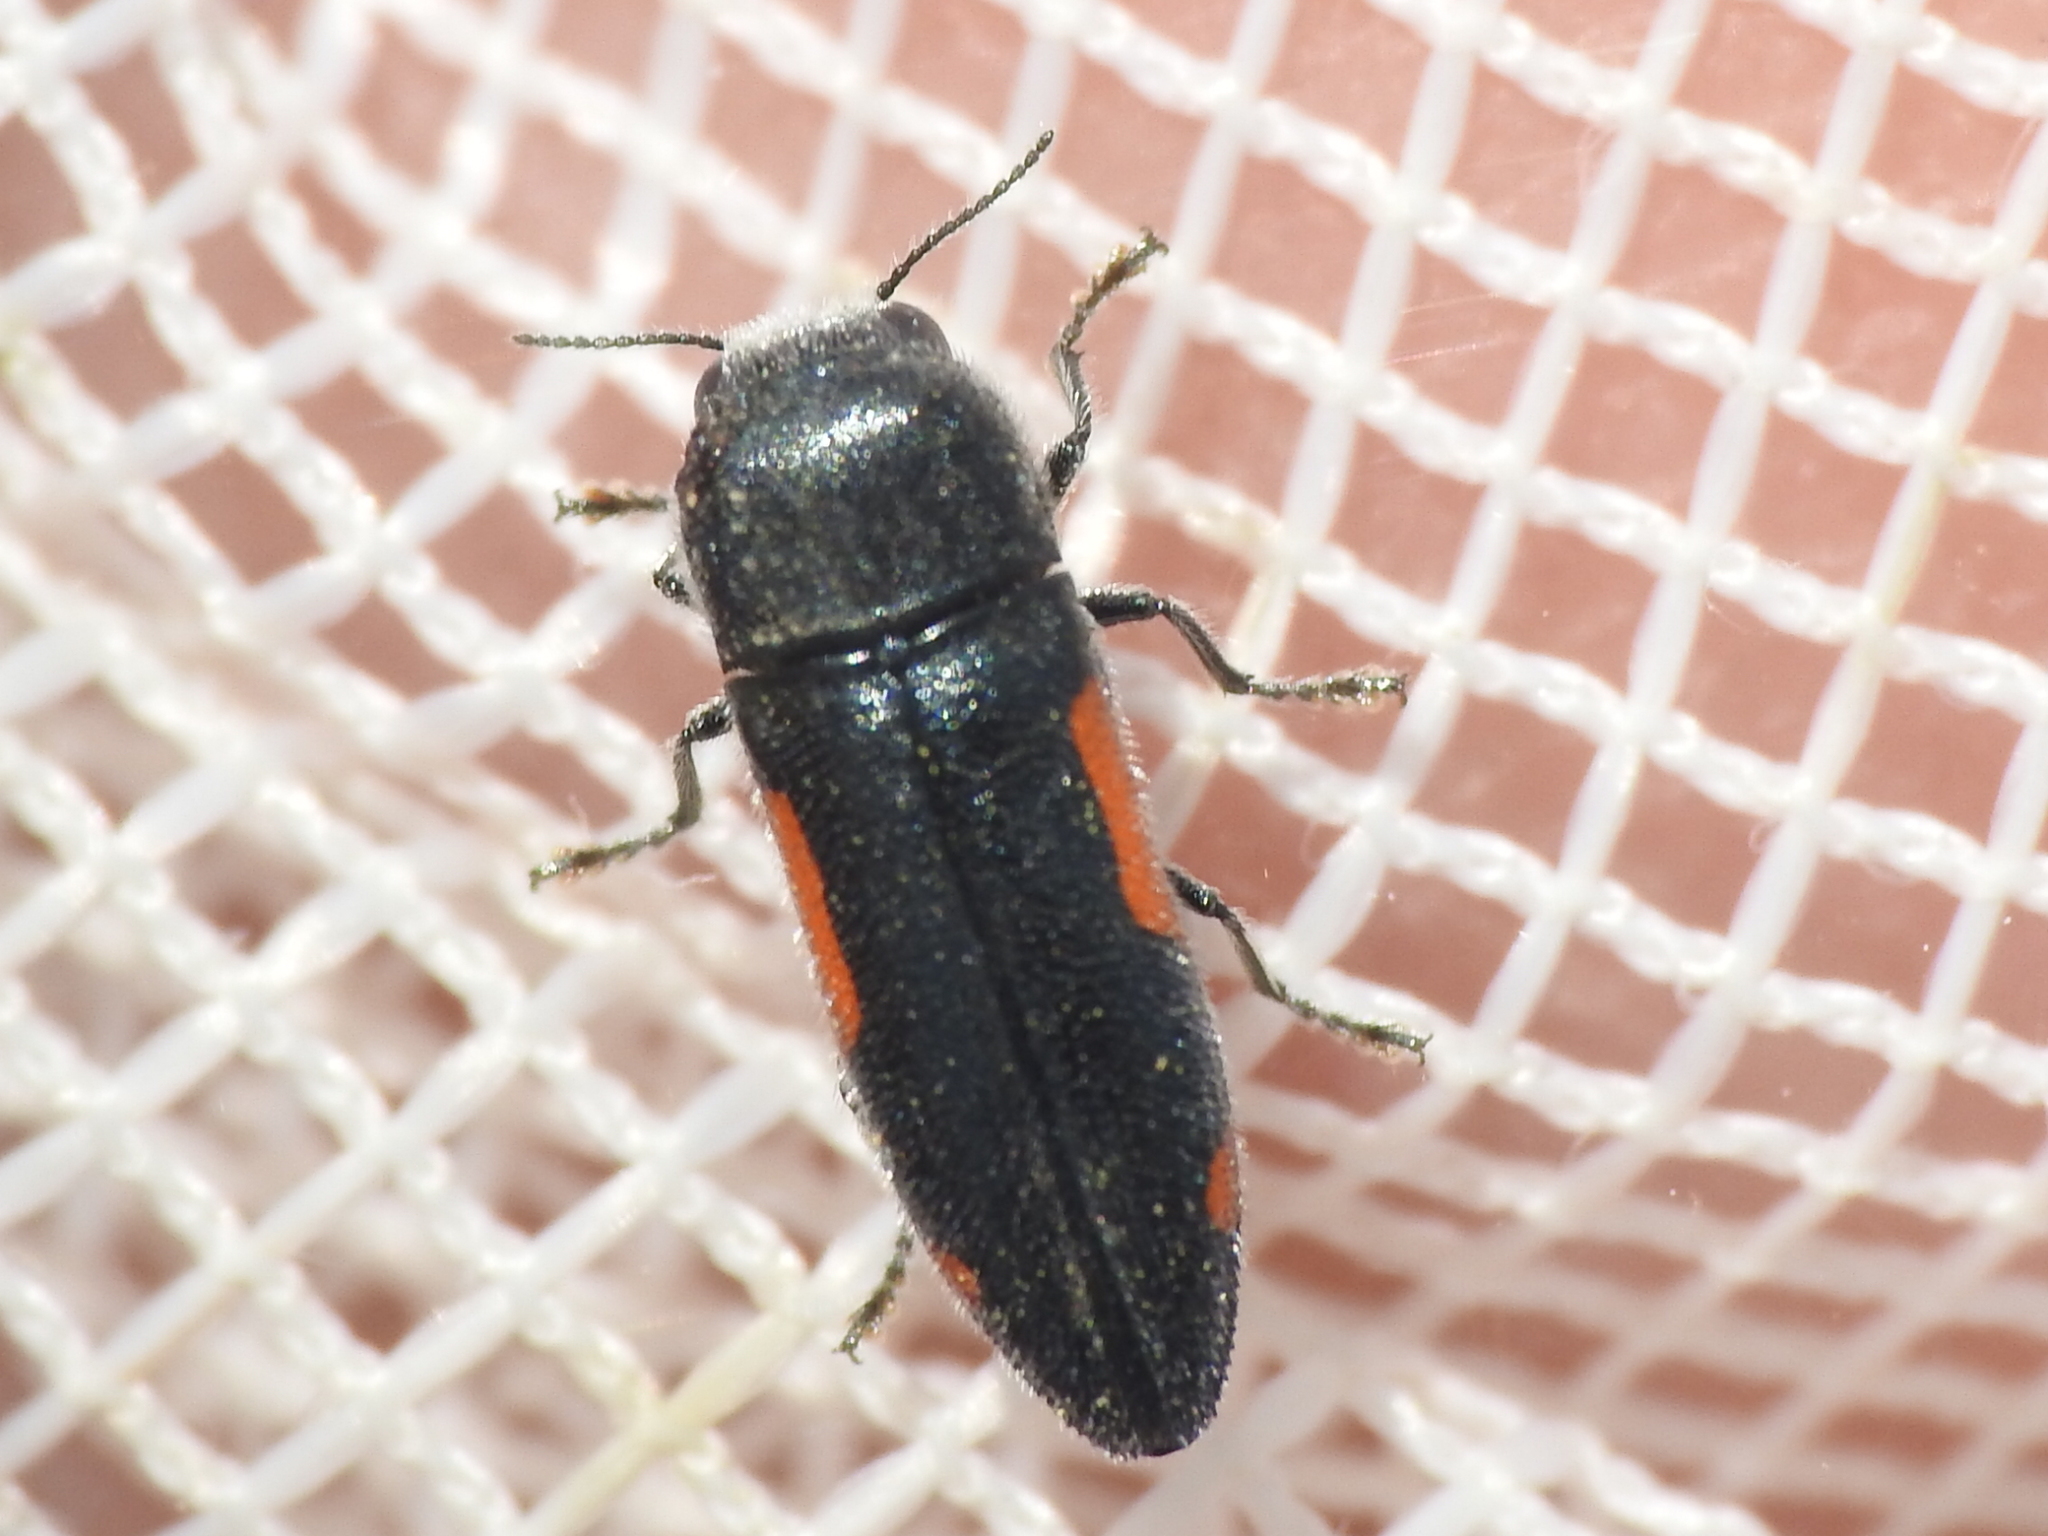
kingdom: Animalia
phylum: Arthropoda
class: Insecta
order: Coleoptera
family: Buprestidae
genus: Ptosima
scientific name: Ptosima laeta
